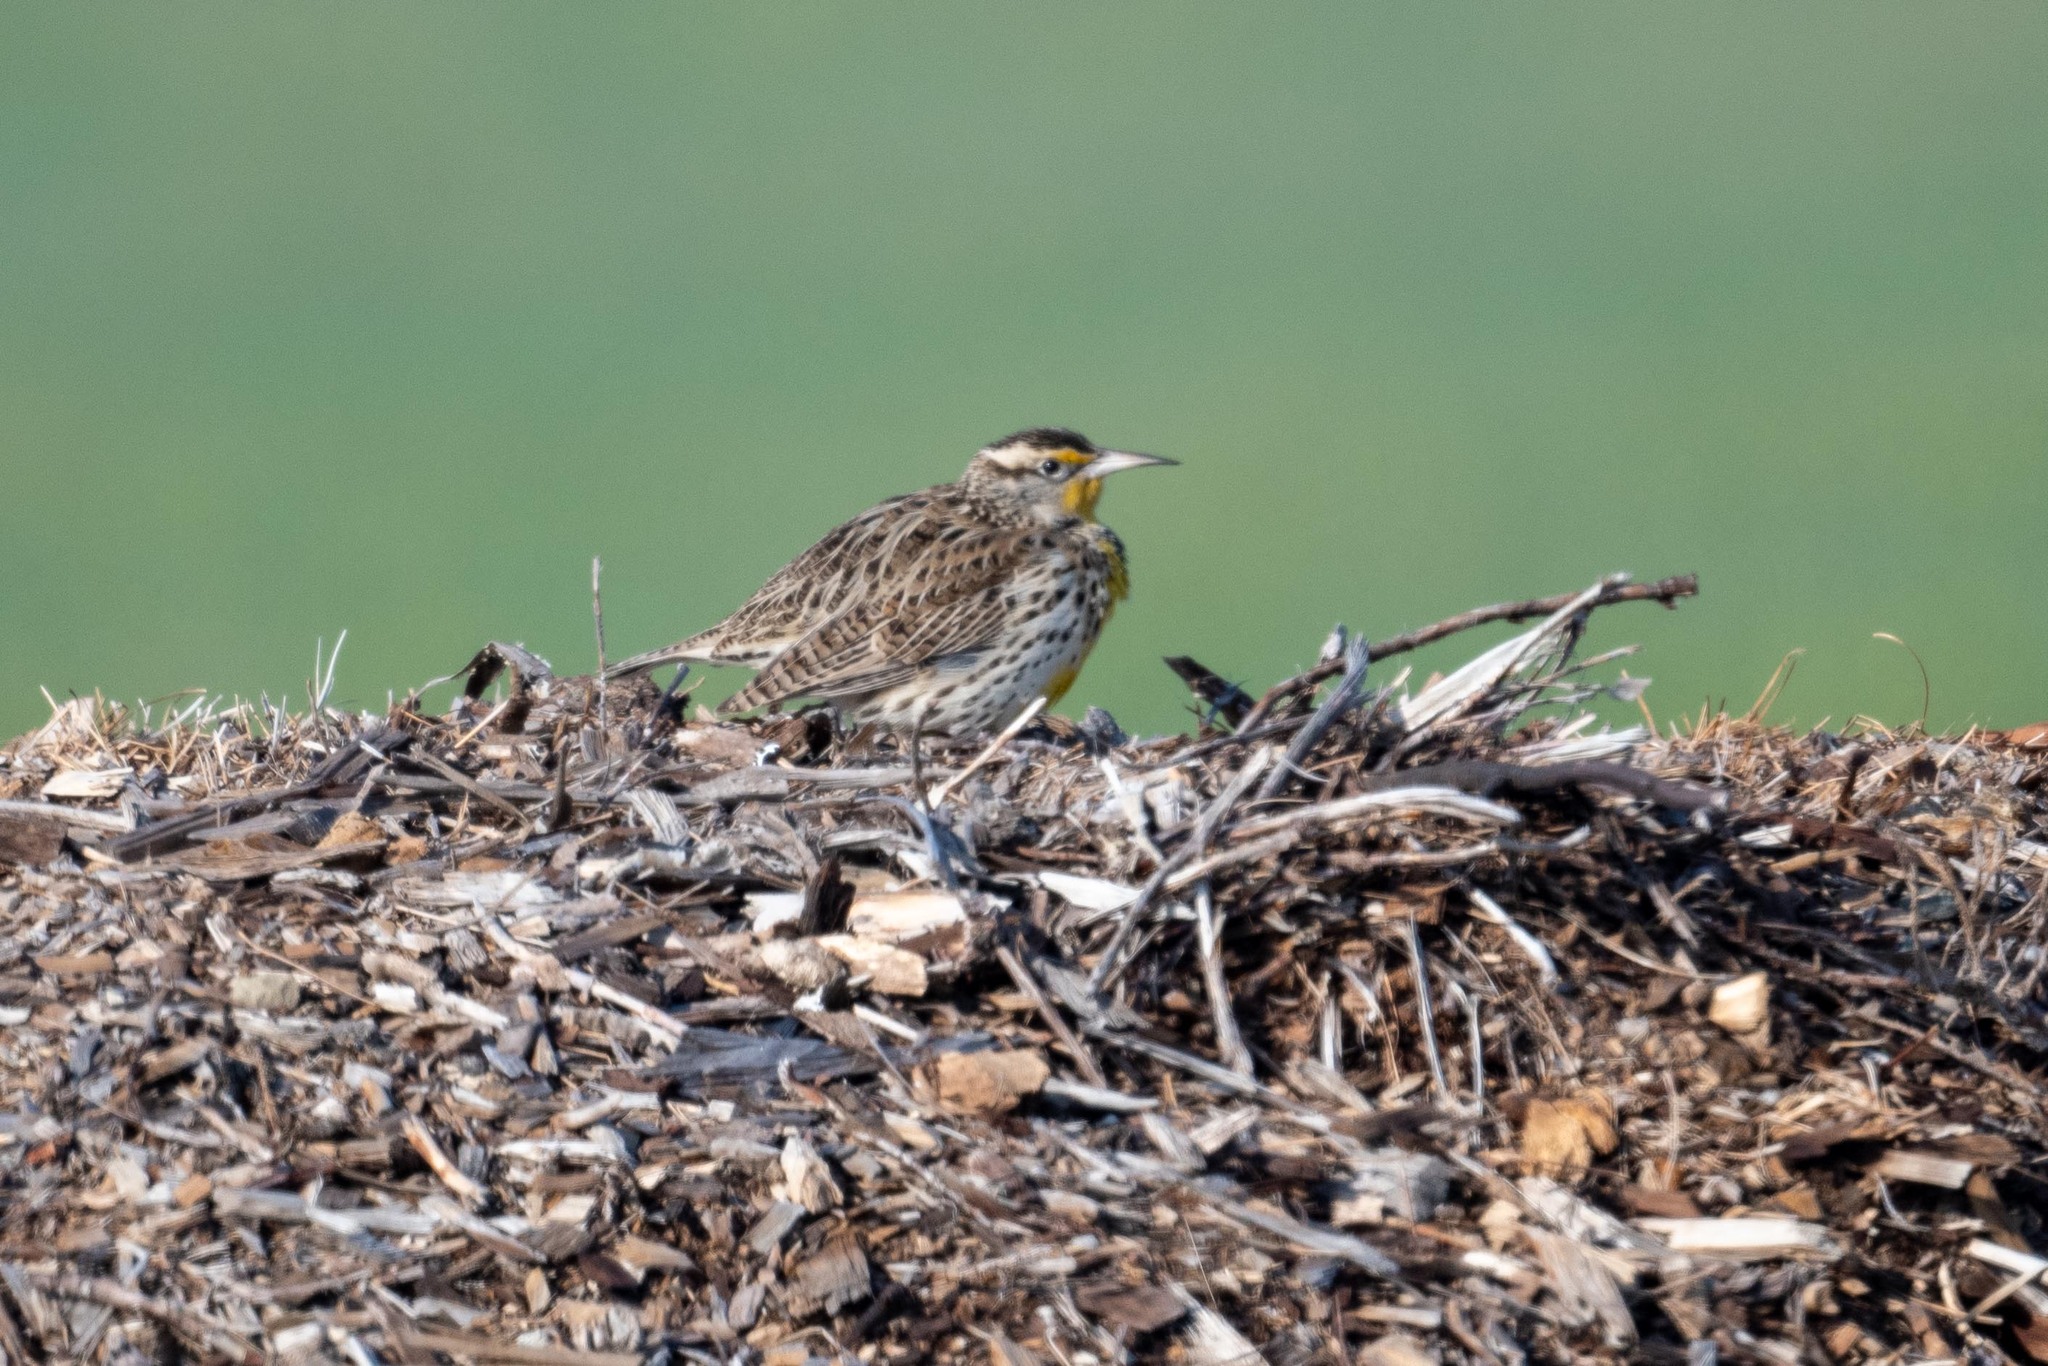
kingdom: Animalia
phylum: Chordata
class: Aves
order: Passeriformes
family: Icteridae
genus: Sturnella
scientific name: Sturnella neglecta
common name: Western meadowlark
